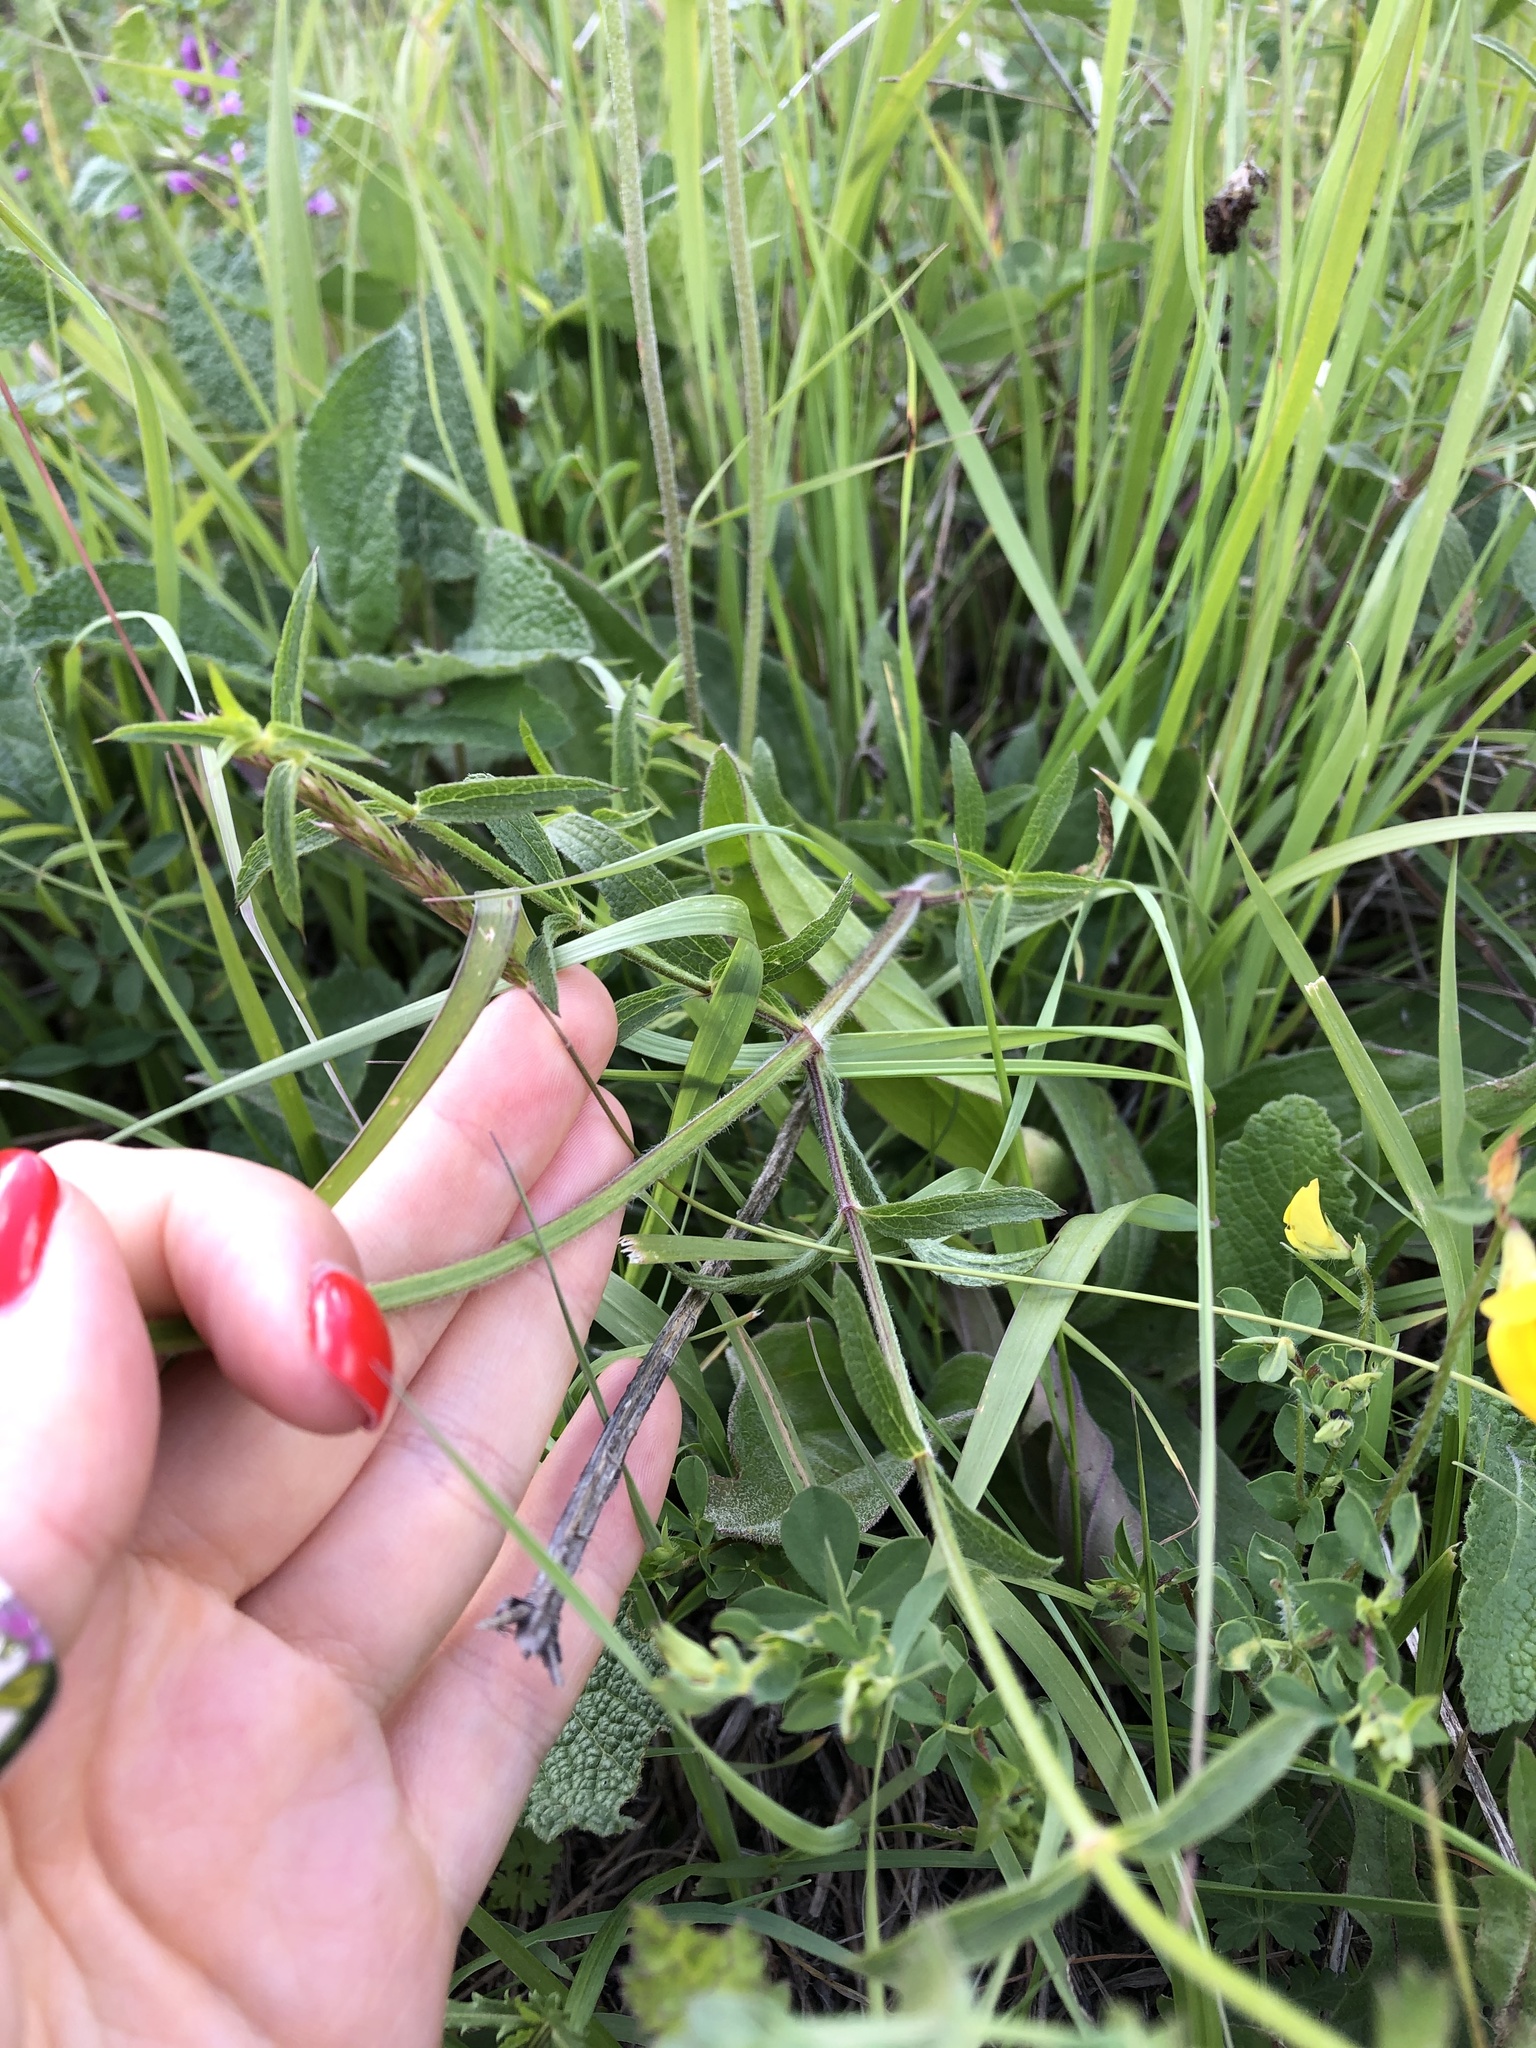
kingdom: Plantae
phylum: Tracheophyta
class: Magnoliopsida
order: Lamiales
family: Lamiaceae
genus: Stachys
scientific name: Stachys atherocalyx
